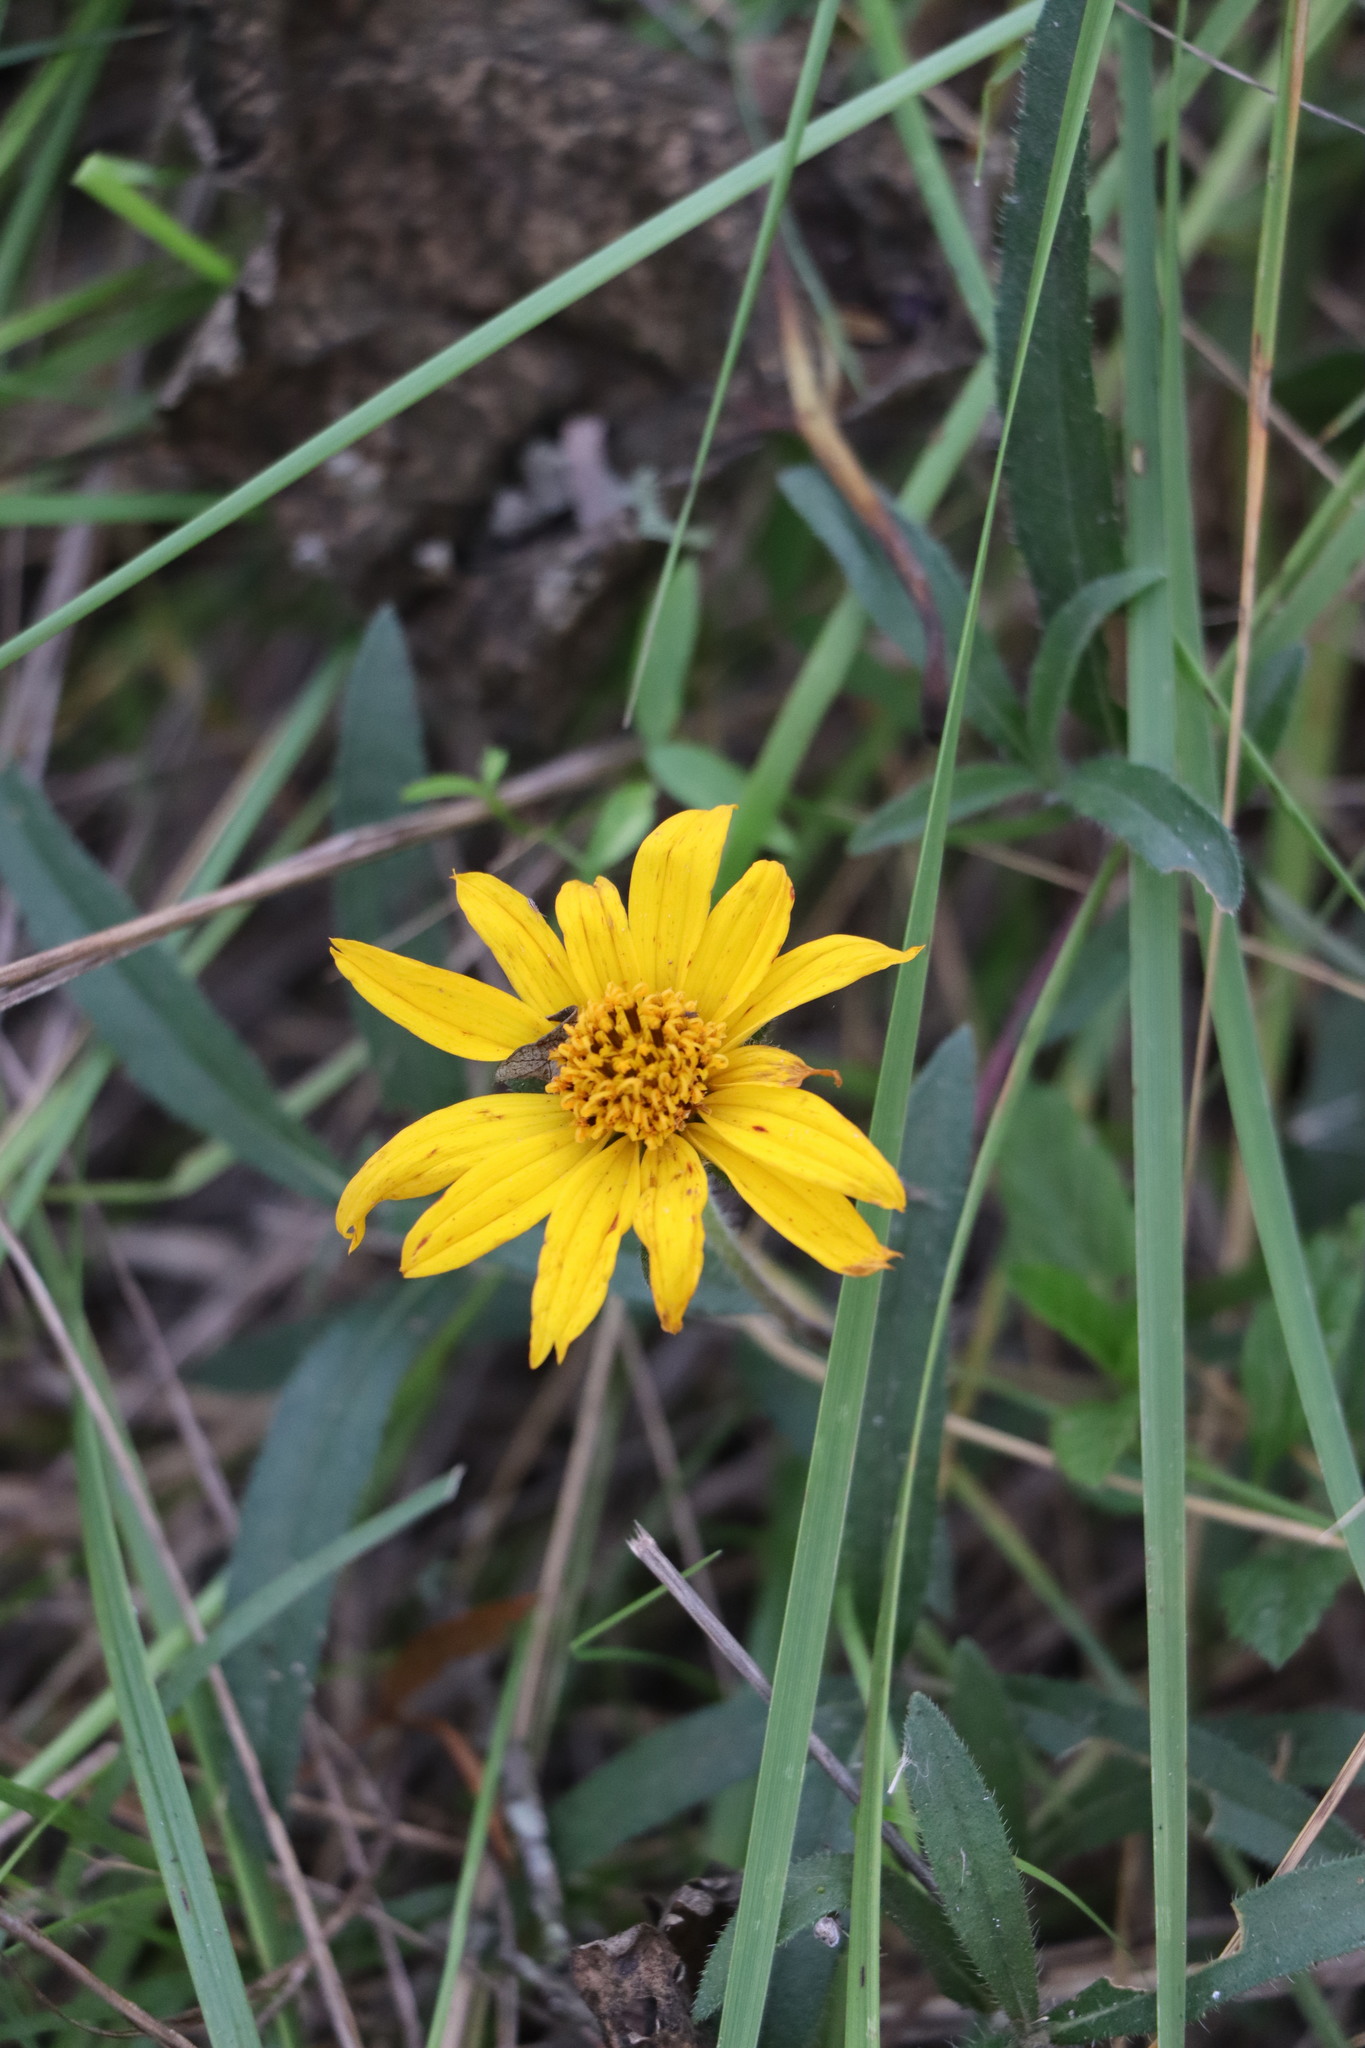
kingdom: Plantae
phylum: Tracheophyta
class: Magnoliopsida
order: Asterales
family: Asteraceae
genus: Wedelia
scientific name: Wedelia montevidensis
